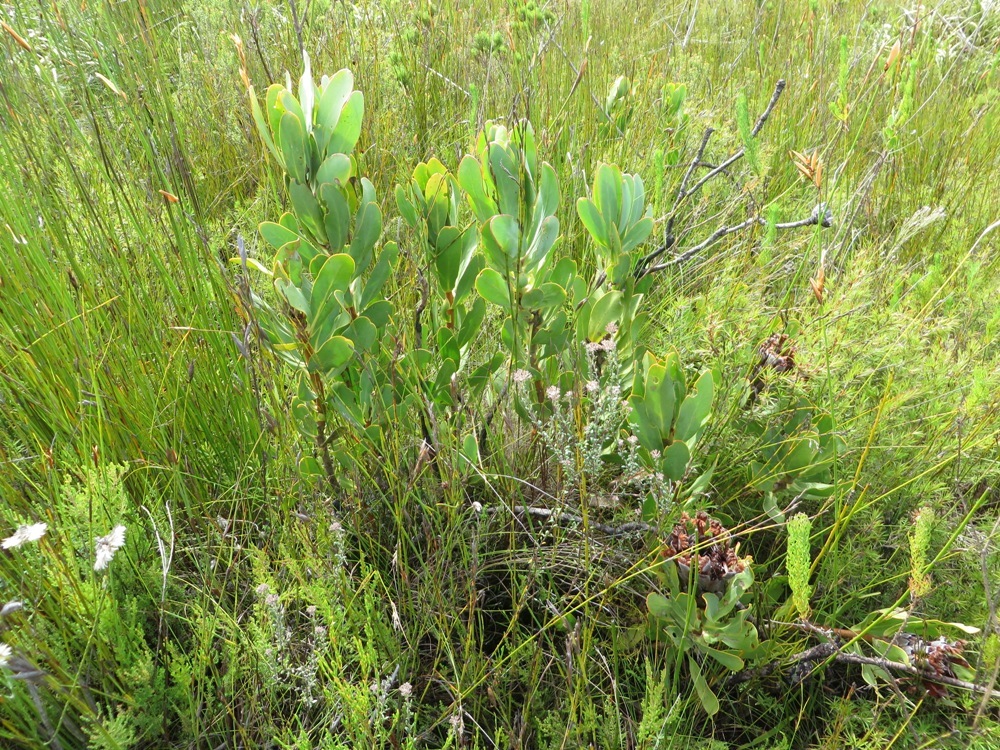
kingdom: Plantae
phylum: Tracheophyta
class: Magnoliopsida
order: Proteales
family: Proteaceae
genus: Protea
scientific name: Protea speciosa
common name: Brown-beard sugarbush
